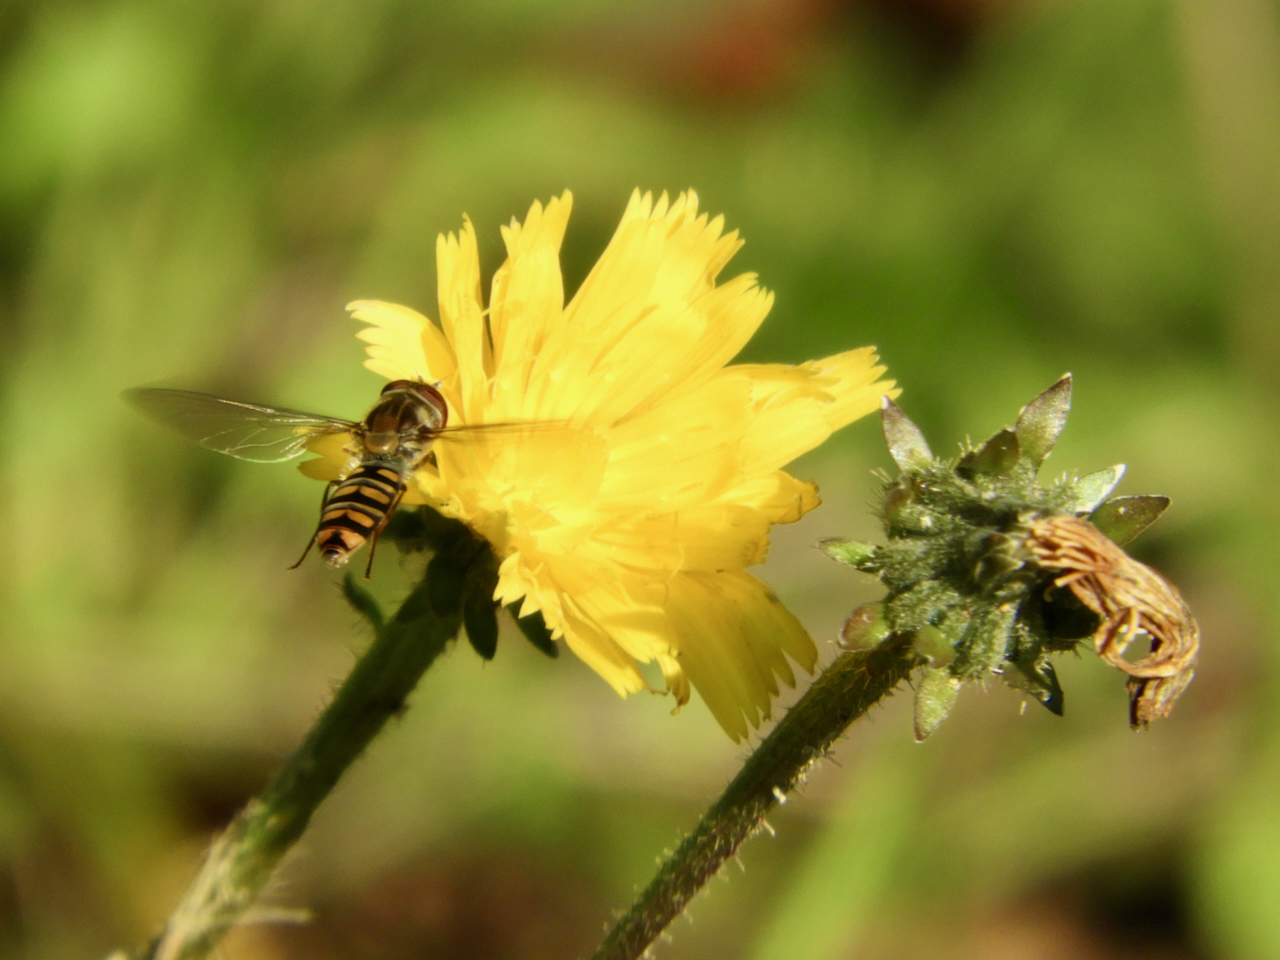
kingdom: Animalia
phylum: Arthropoda
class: Insecta
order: Diptera
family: Syrphidae
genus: Episyrphus
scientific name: Episyrphus balteatus
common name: Marmalade hoverfly
